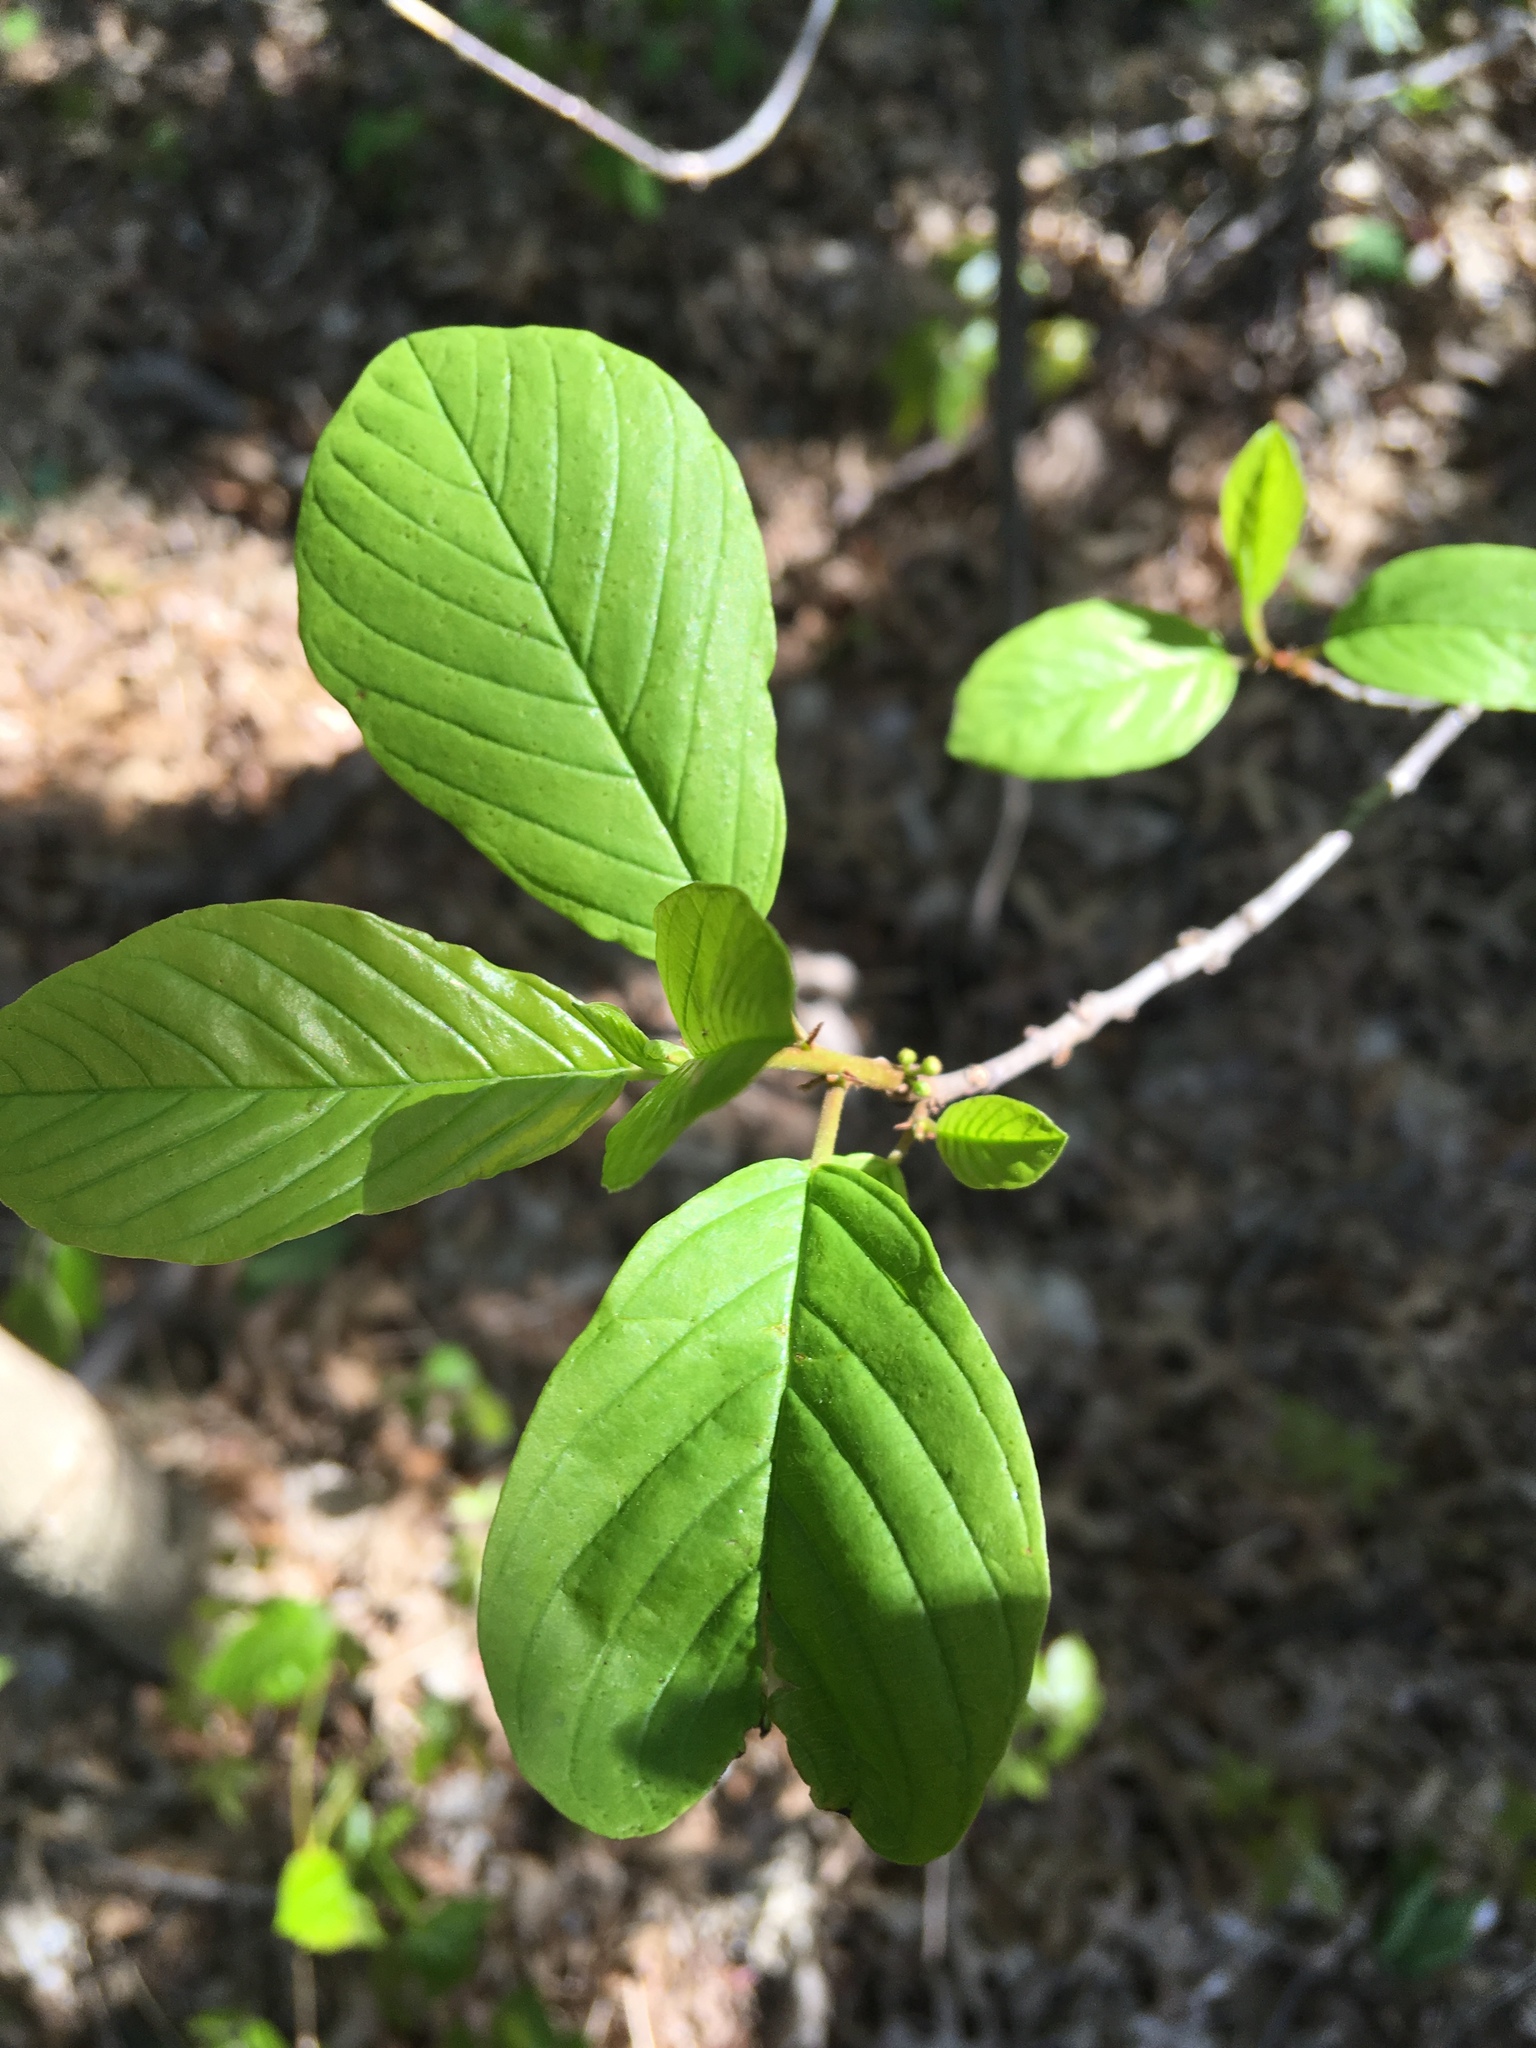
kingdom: Plantae
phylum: Tracheophyta
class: Magnoliopsida
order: Rosales
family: Rhamnaceae
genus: Frangula
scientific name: Frangula alnus
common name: Alder buckthorn
